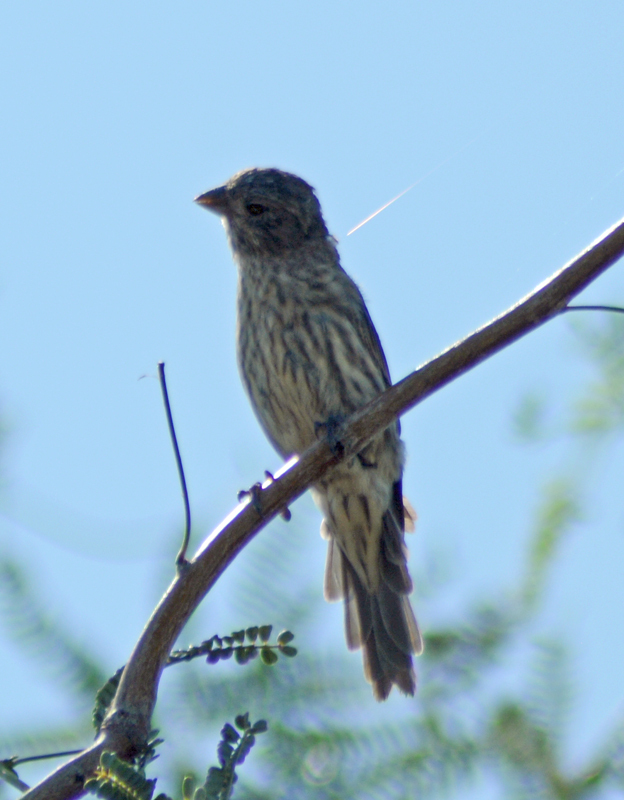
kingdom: Animalia
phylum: Chordata
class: Aves
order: Passeriformes
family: Fringillidae
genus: Haemorhous
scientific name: Haemorhous mexicanus
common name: House finch
